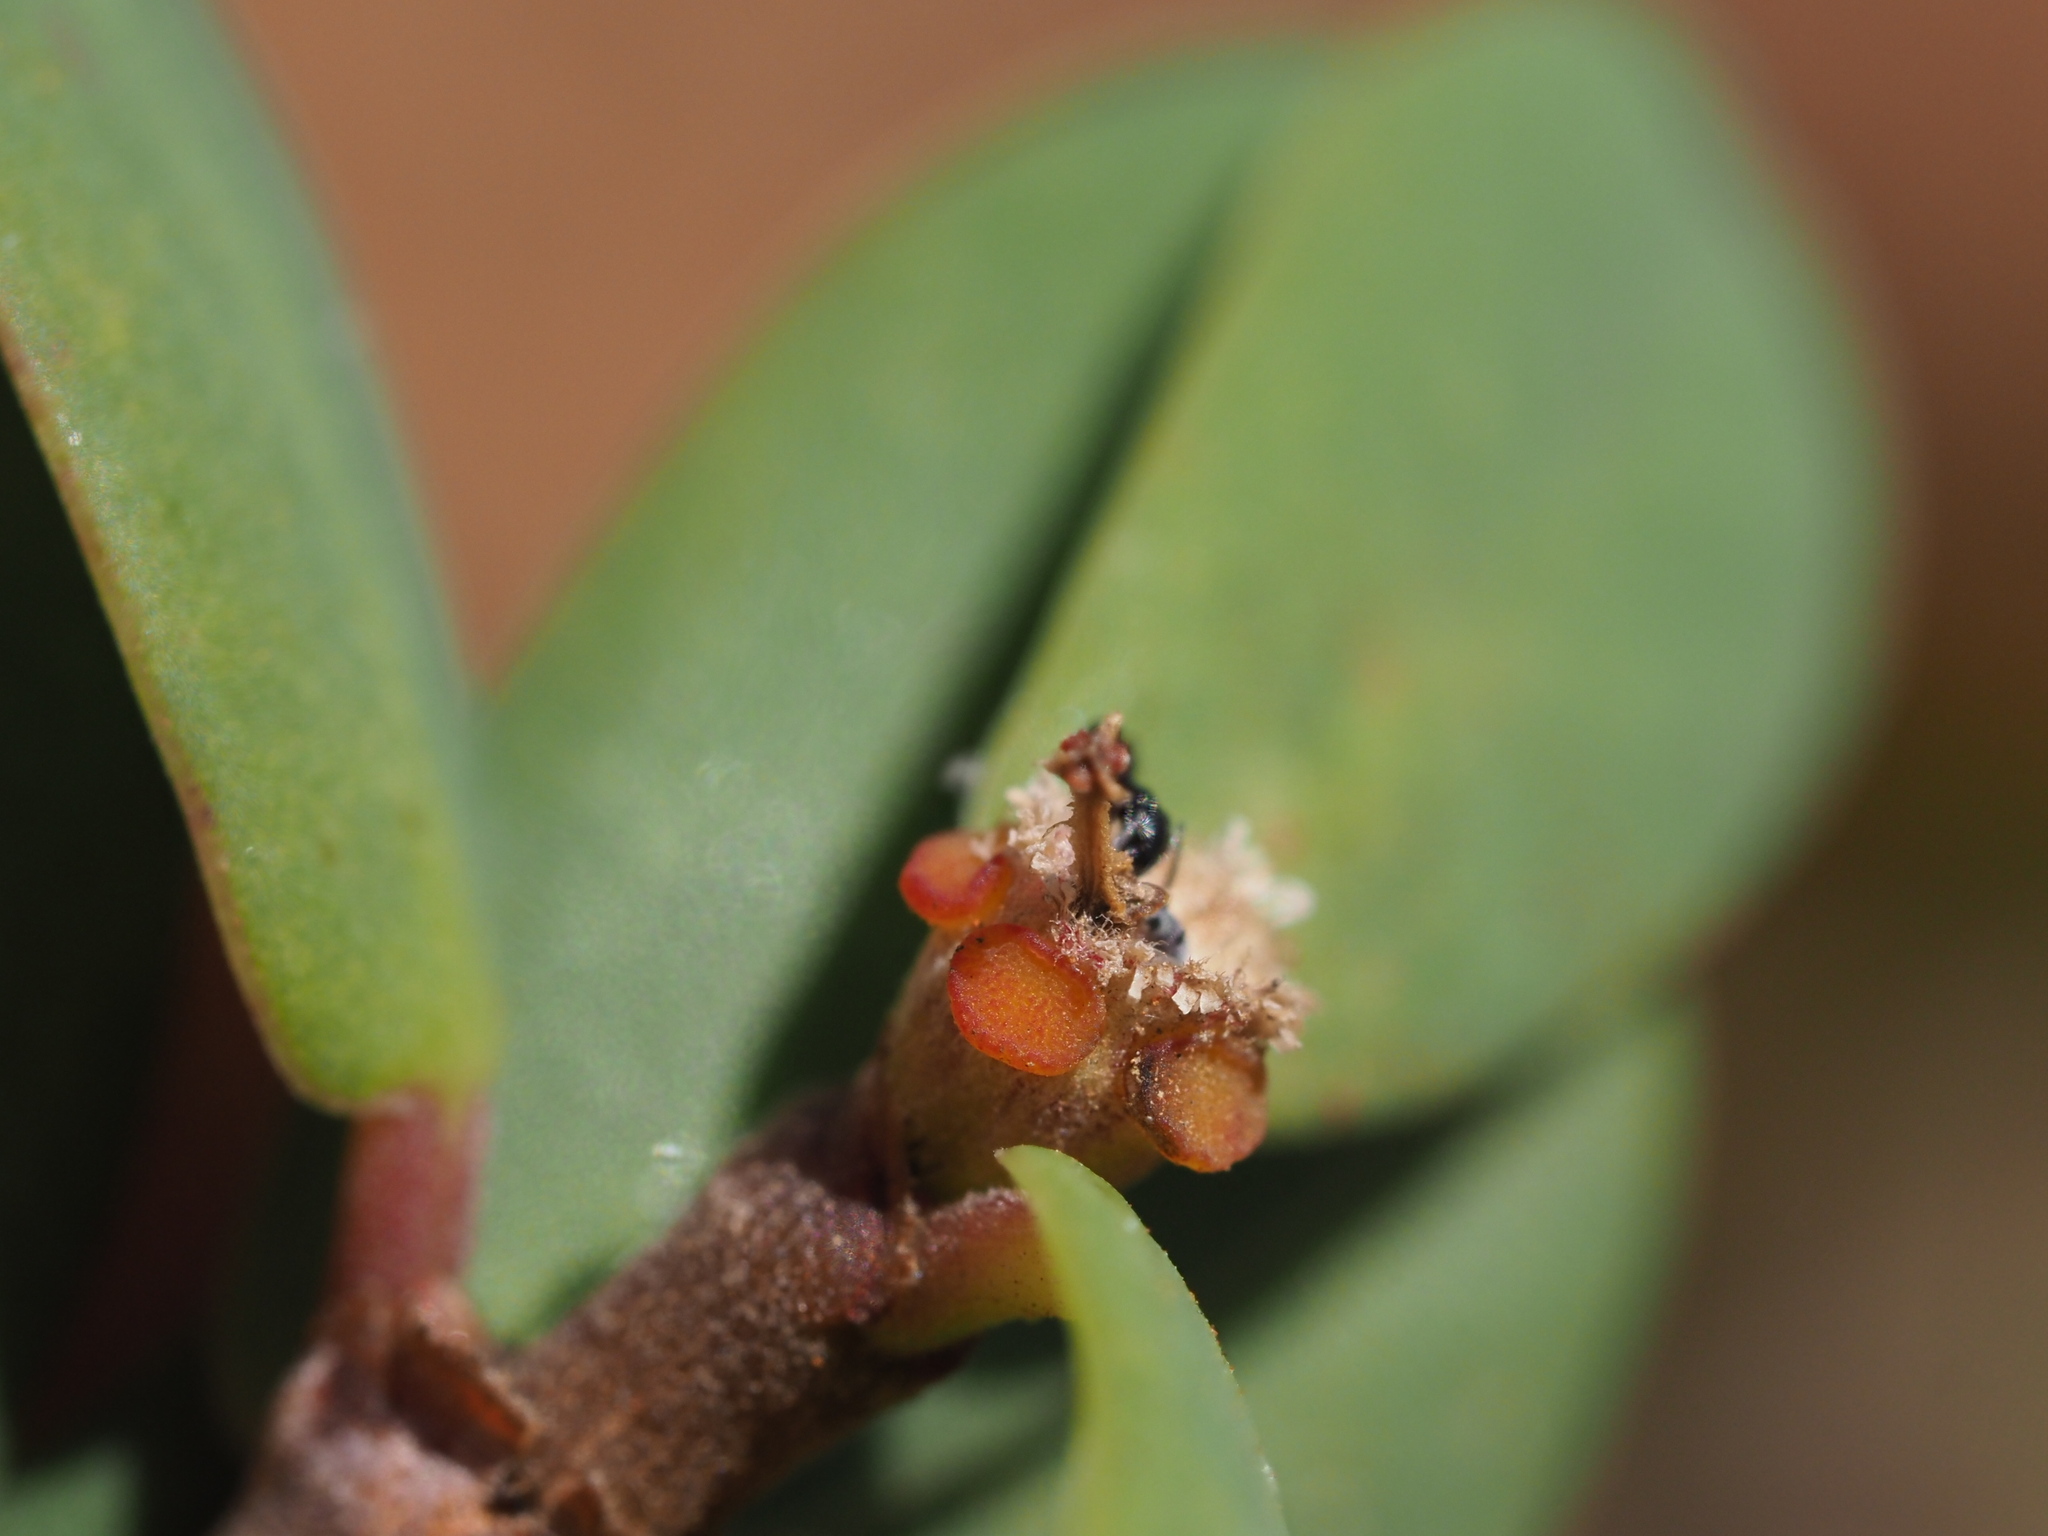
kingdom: Plantae
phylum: Tracheophyta
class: Magnoliopsida
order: Malpighiales
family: Euphorbiaceae
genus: Euphorbia
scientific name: Euphorbia celastroides
